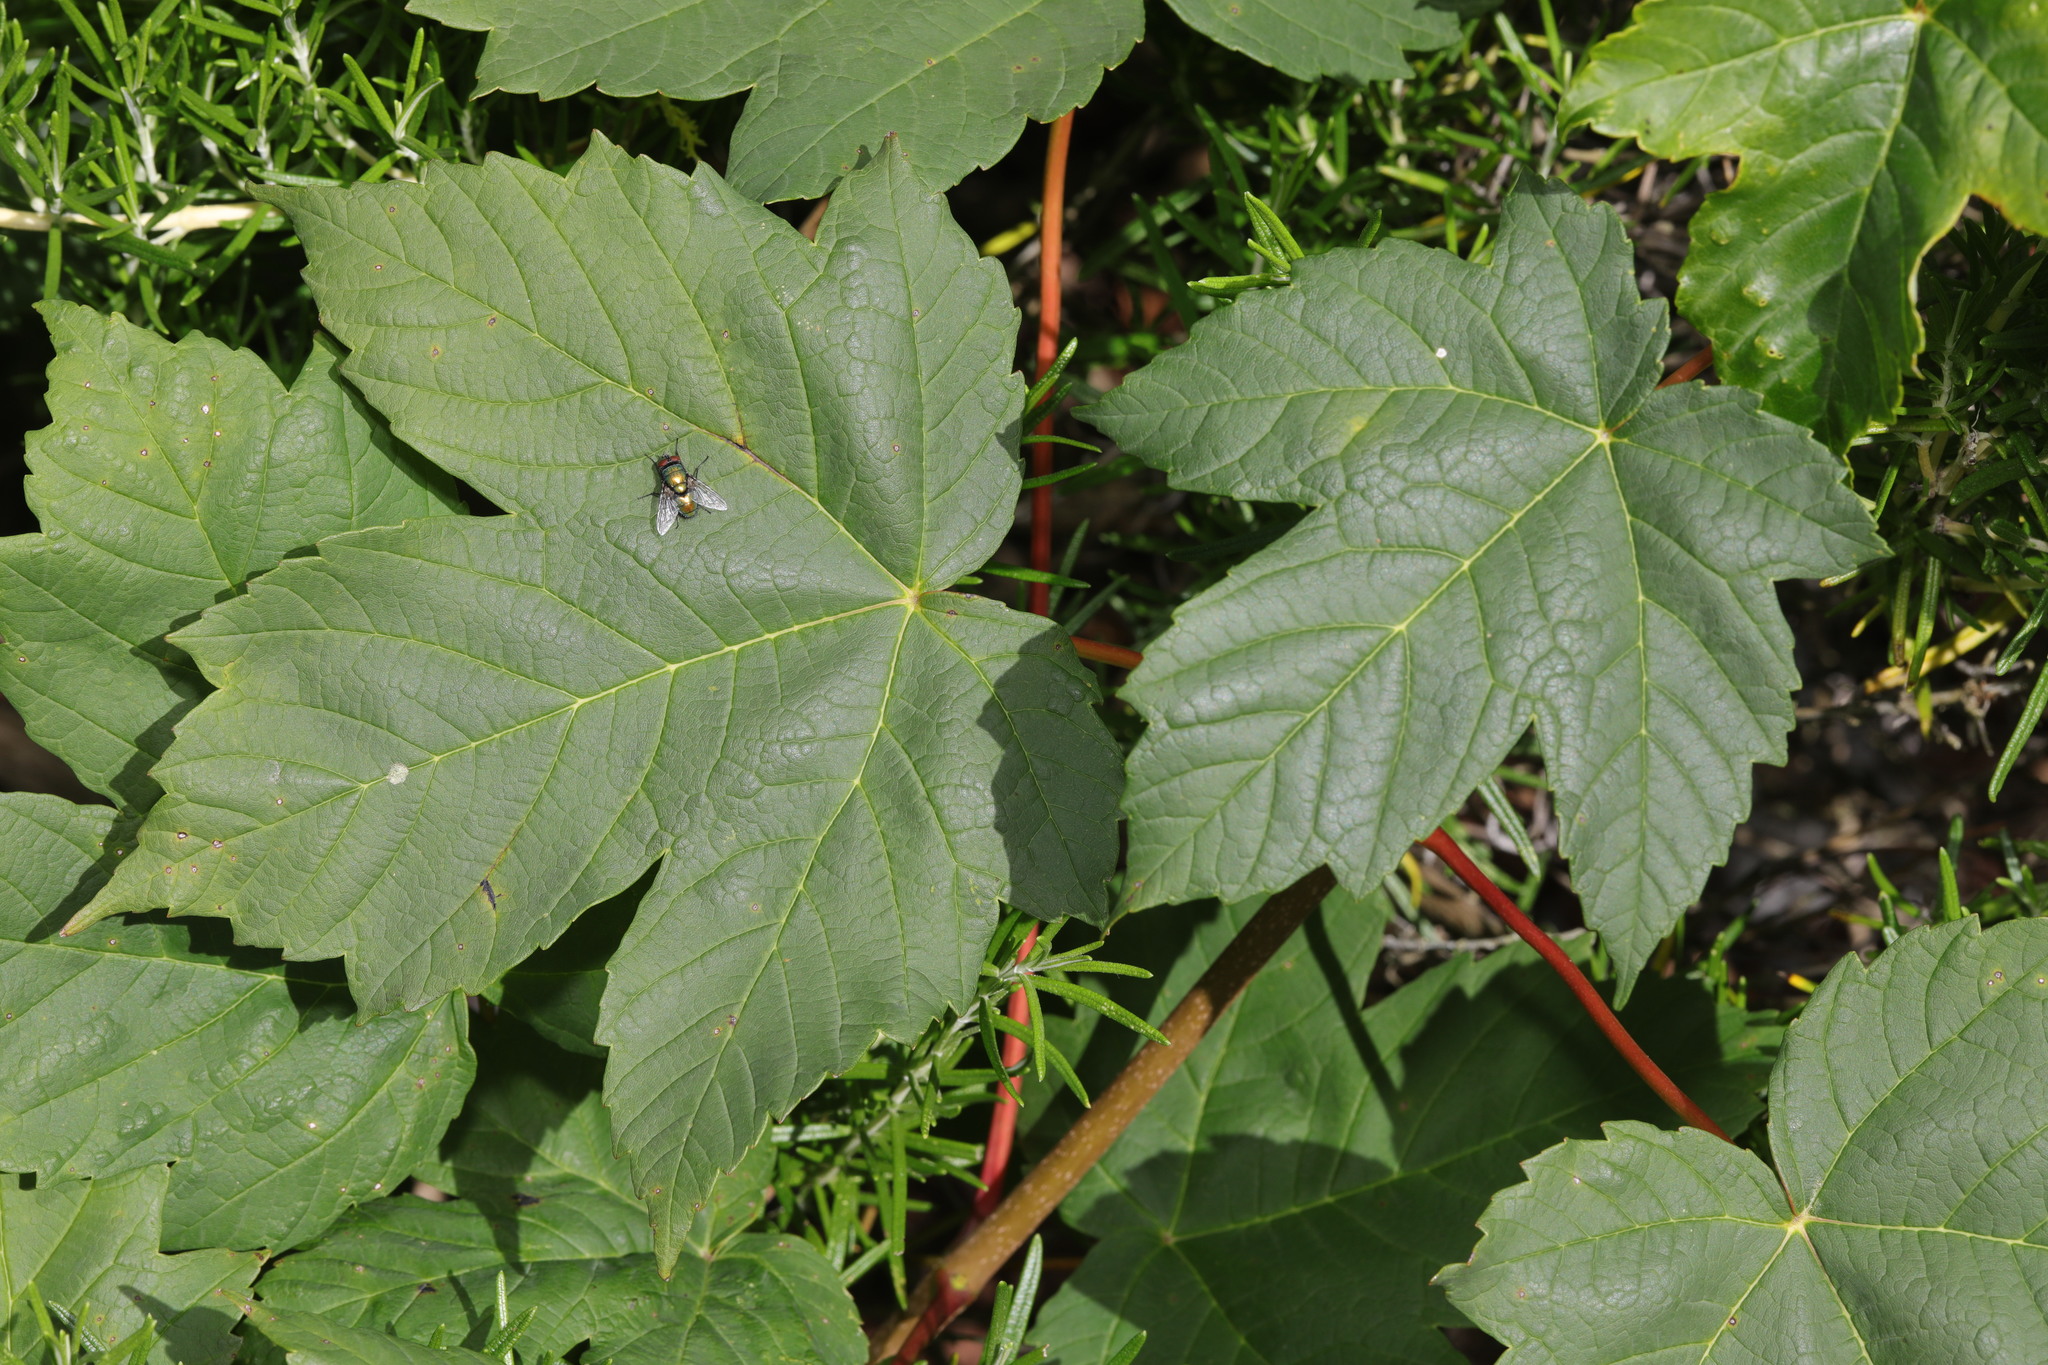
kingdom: Plantae
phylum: Tracheophyta
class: Magnoliopsida
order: Sapindales
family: Sapindaceae
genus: Acer
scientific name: Acer pseudoplatanus
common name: Sycamore
